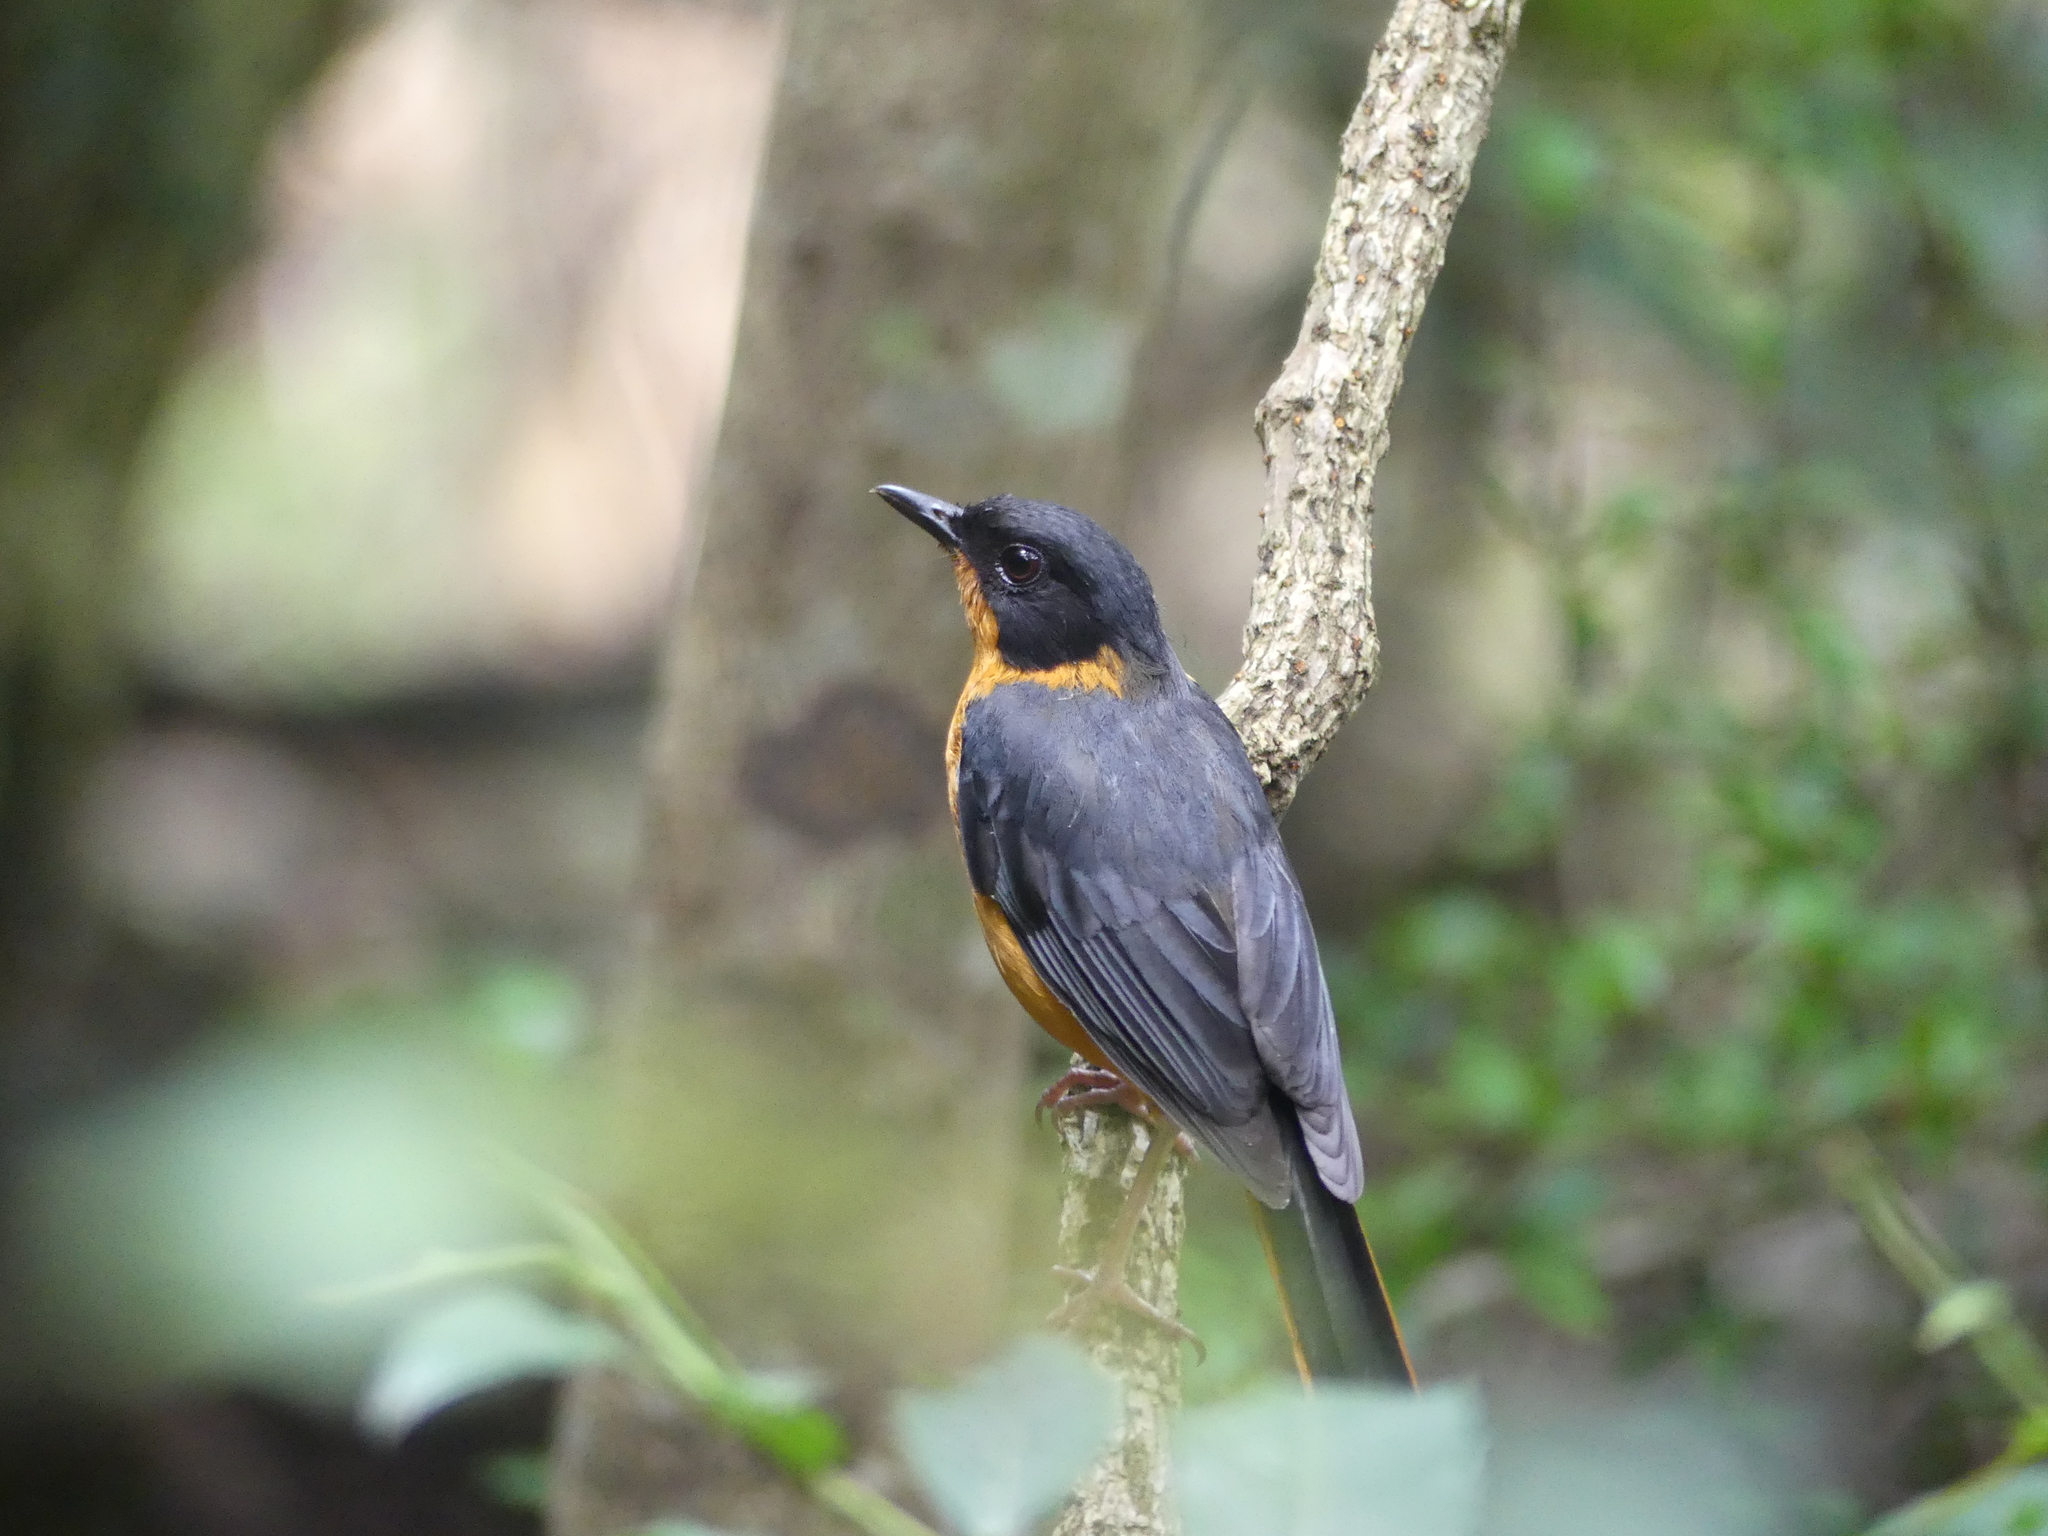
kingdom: Animalia
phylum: Chordata
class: Aves
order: Passeriformes
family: Muscicapidae
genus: Cossypha
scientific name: Cossypha dichroa
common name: Chorister robin-chat
